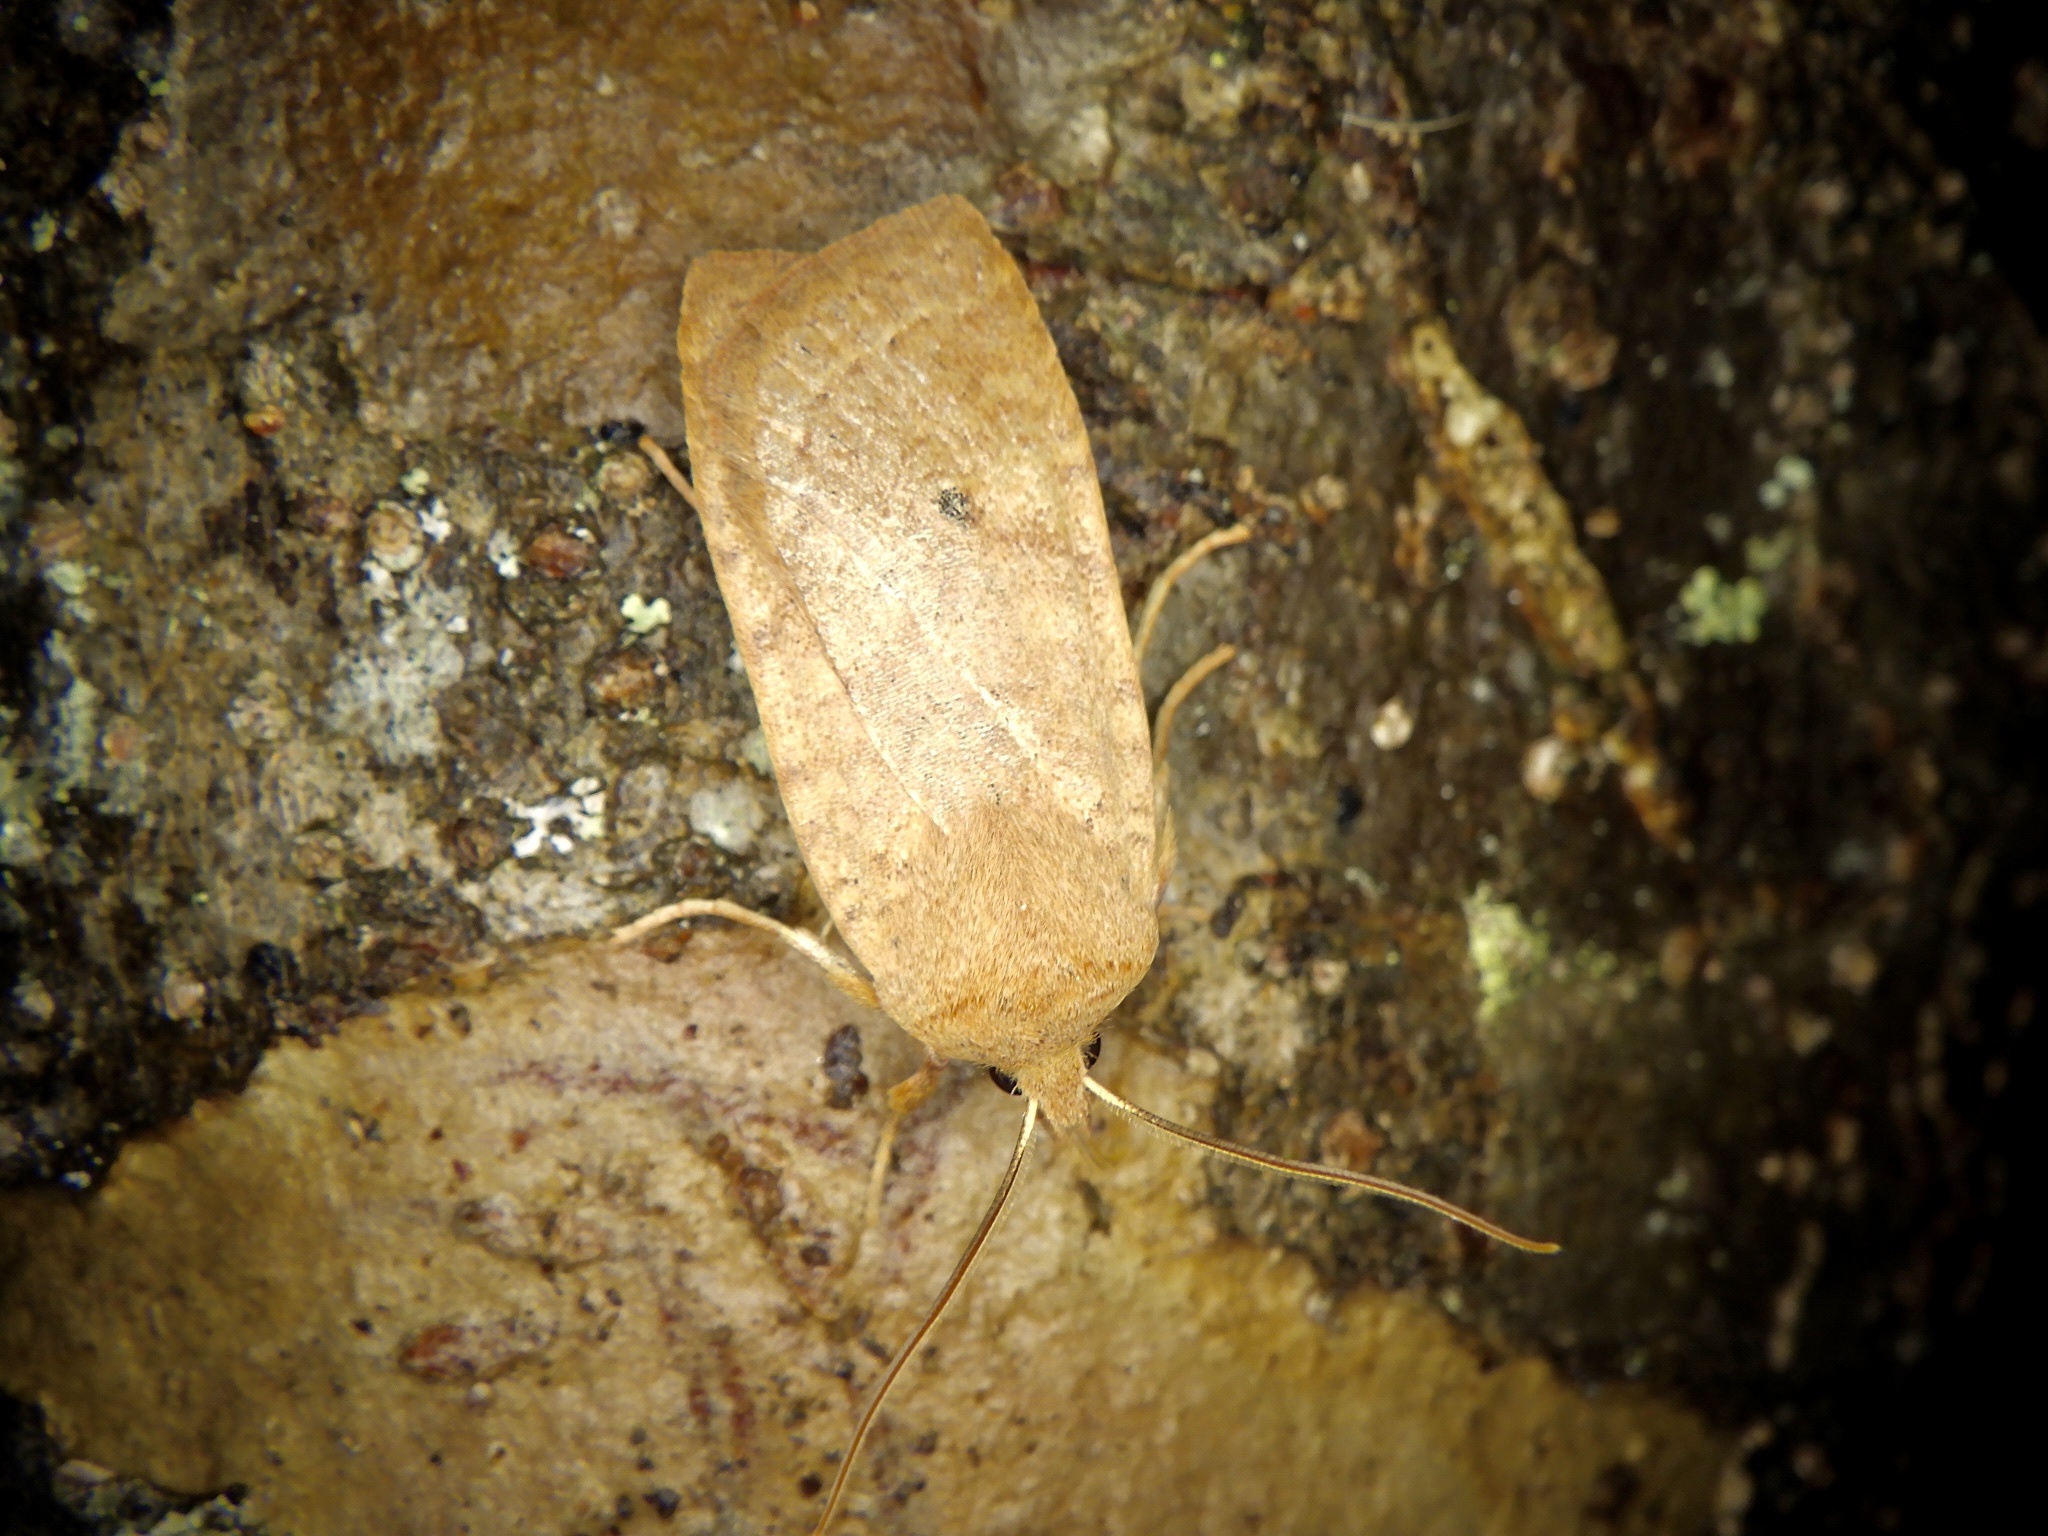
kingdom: Animalia
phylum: Arthropoda
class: Insecta
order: Lepidoptera
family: Noctuidae
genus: Conistra
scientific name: Conistra albipuncta
